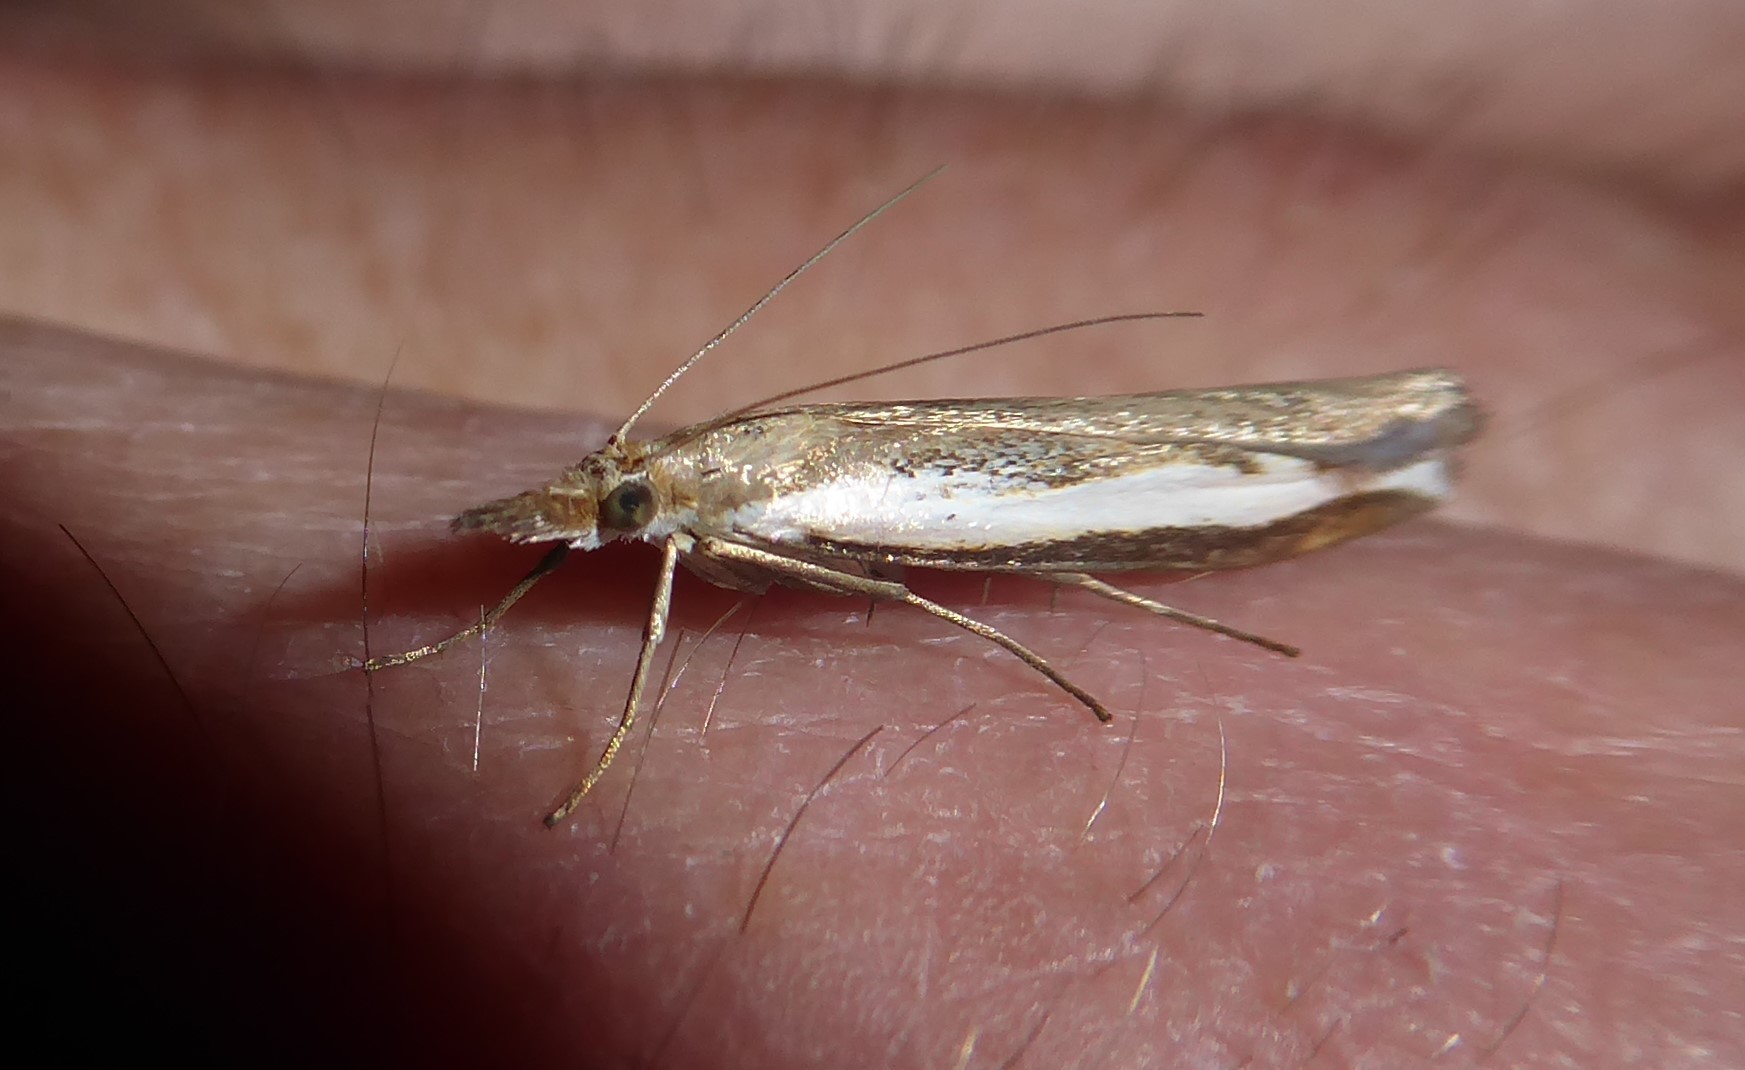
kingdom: Animalia
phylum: Arthropoda
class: Insecta
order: Lepidoptera
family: Crambidae
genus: Orocrambus
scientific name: Orocrambus flexuosellus
